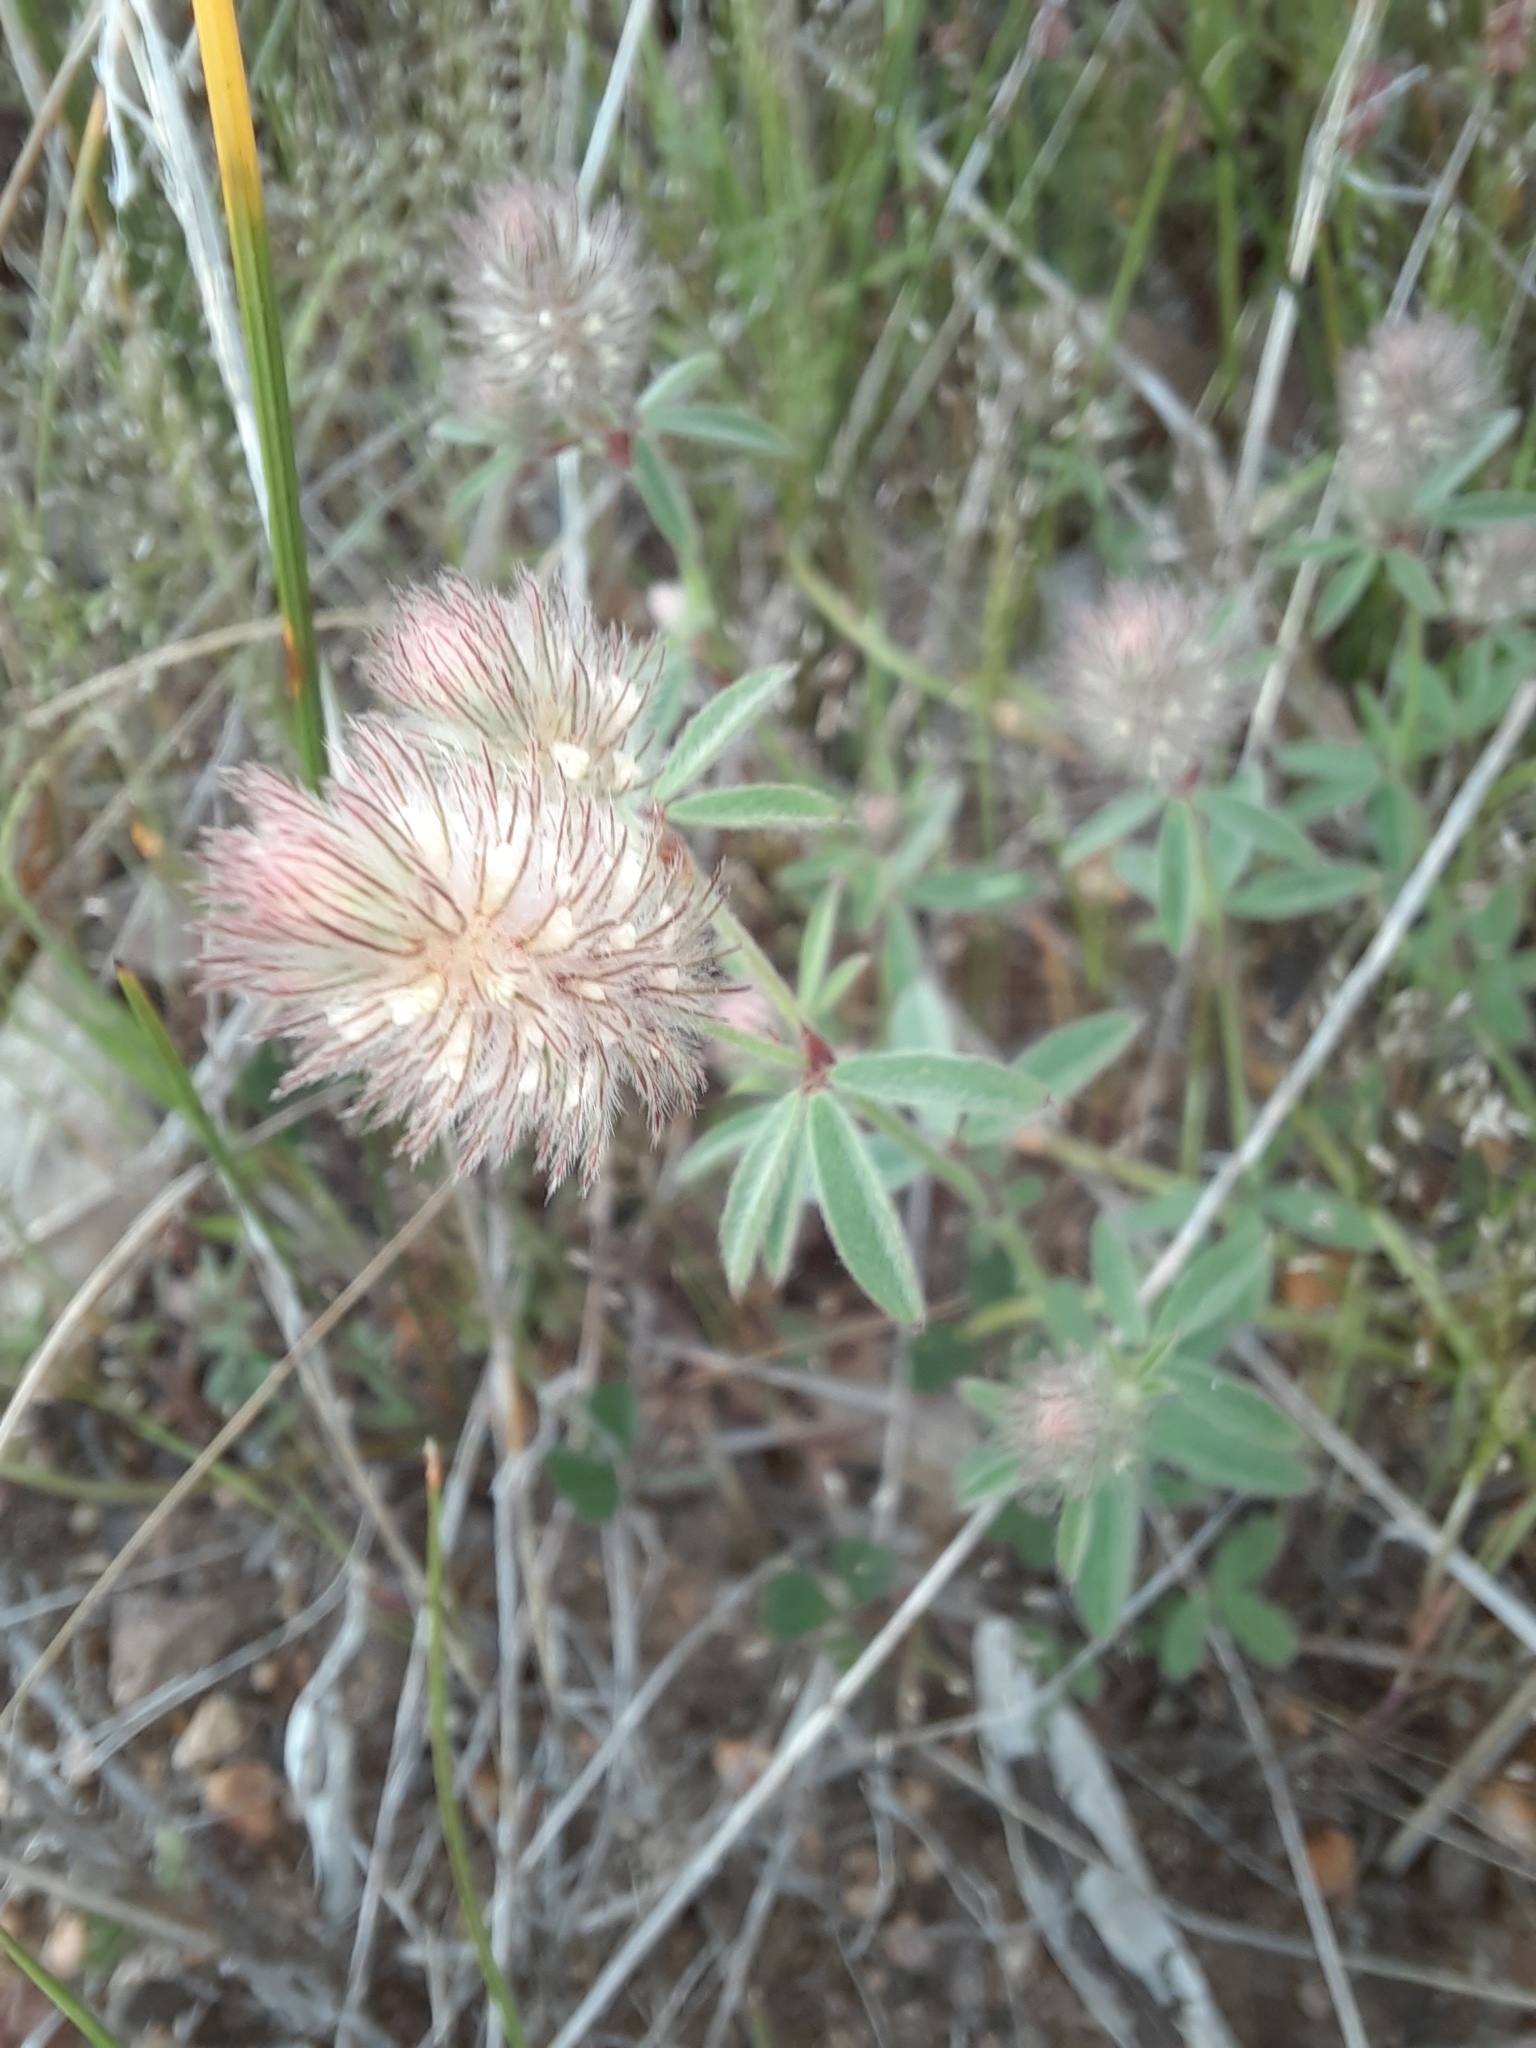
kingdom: Plantae
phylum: Tracheophyta
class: Magnoliopsida
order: Fabales
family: Fabaceae
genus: Trifolium
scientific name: Trifolium arvense
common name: Hare's-foot clover
